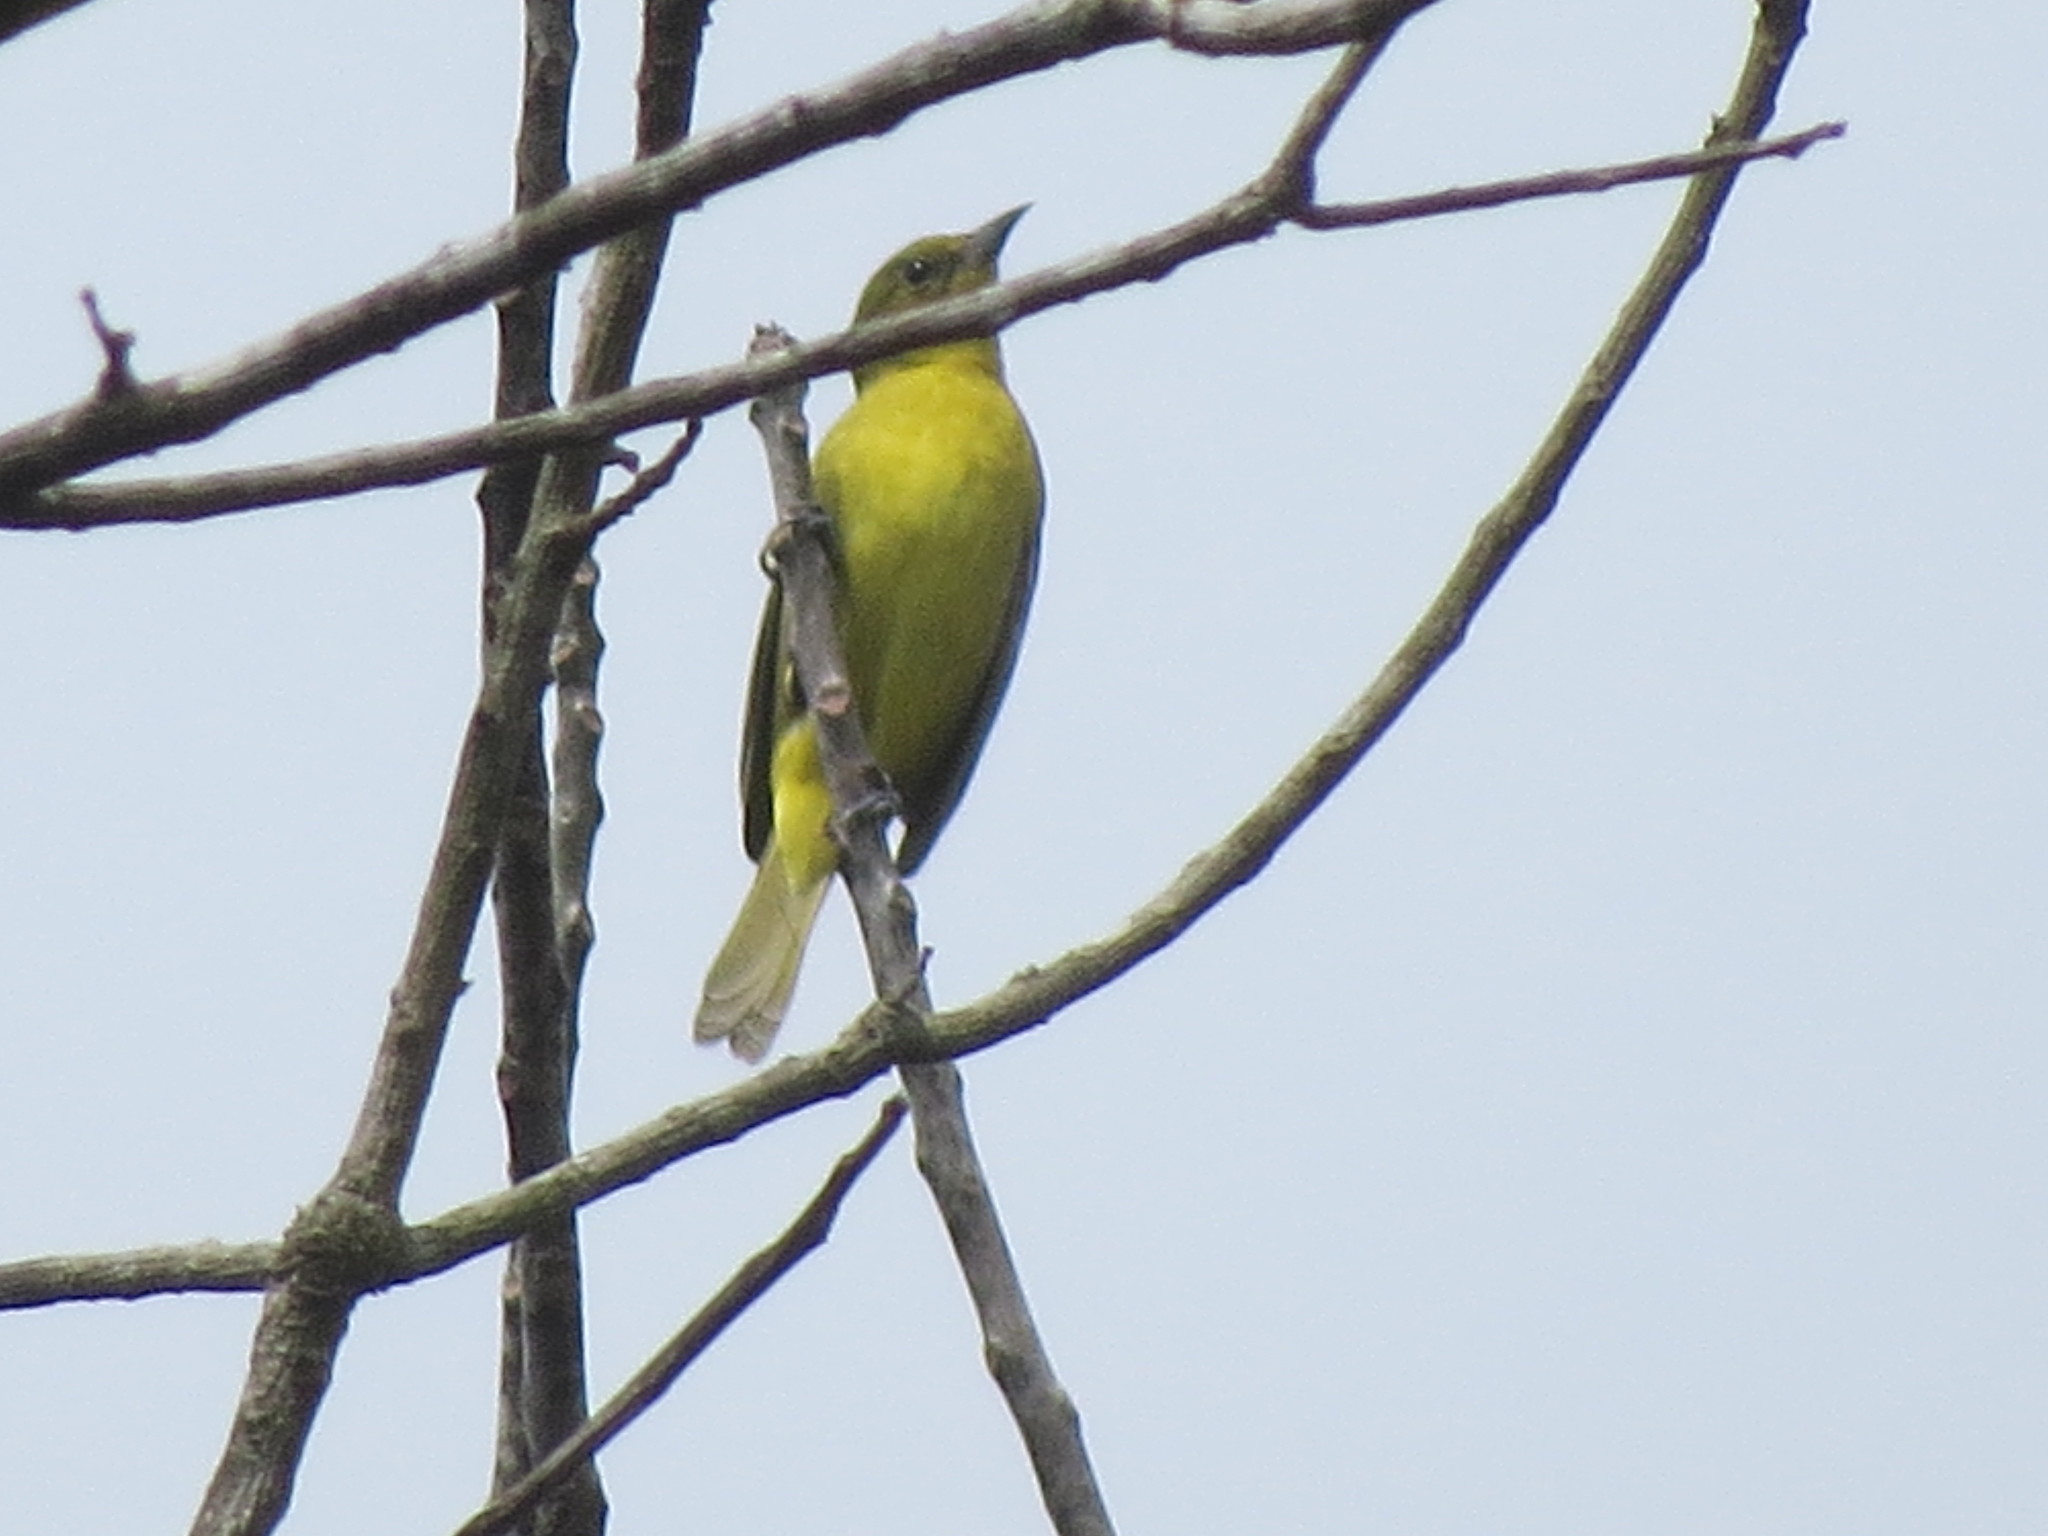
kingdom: Animalia
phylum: Chordata
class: Aves
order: Passeriformes
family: Icteridae
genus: Icterus
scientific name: Icterus spurius
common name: Orchard oriole
